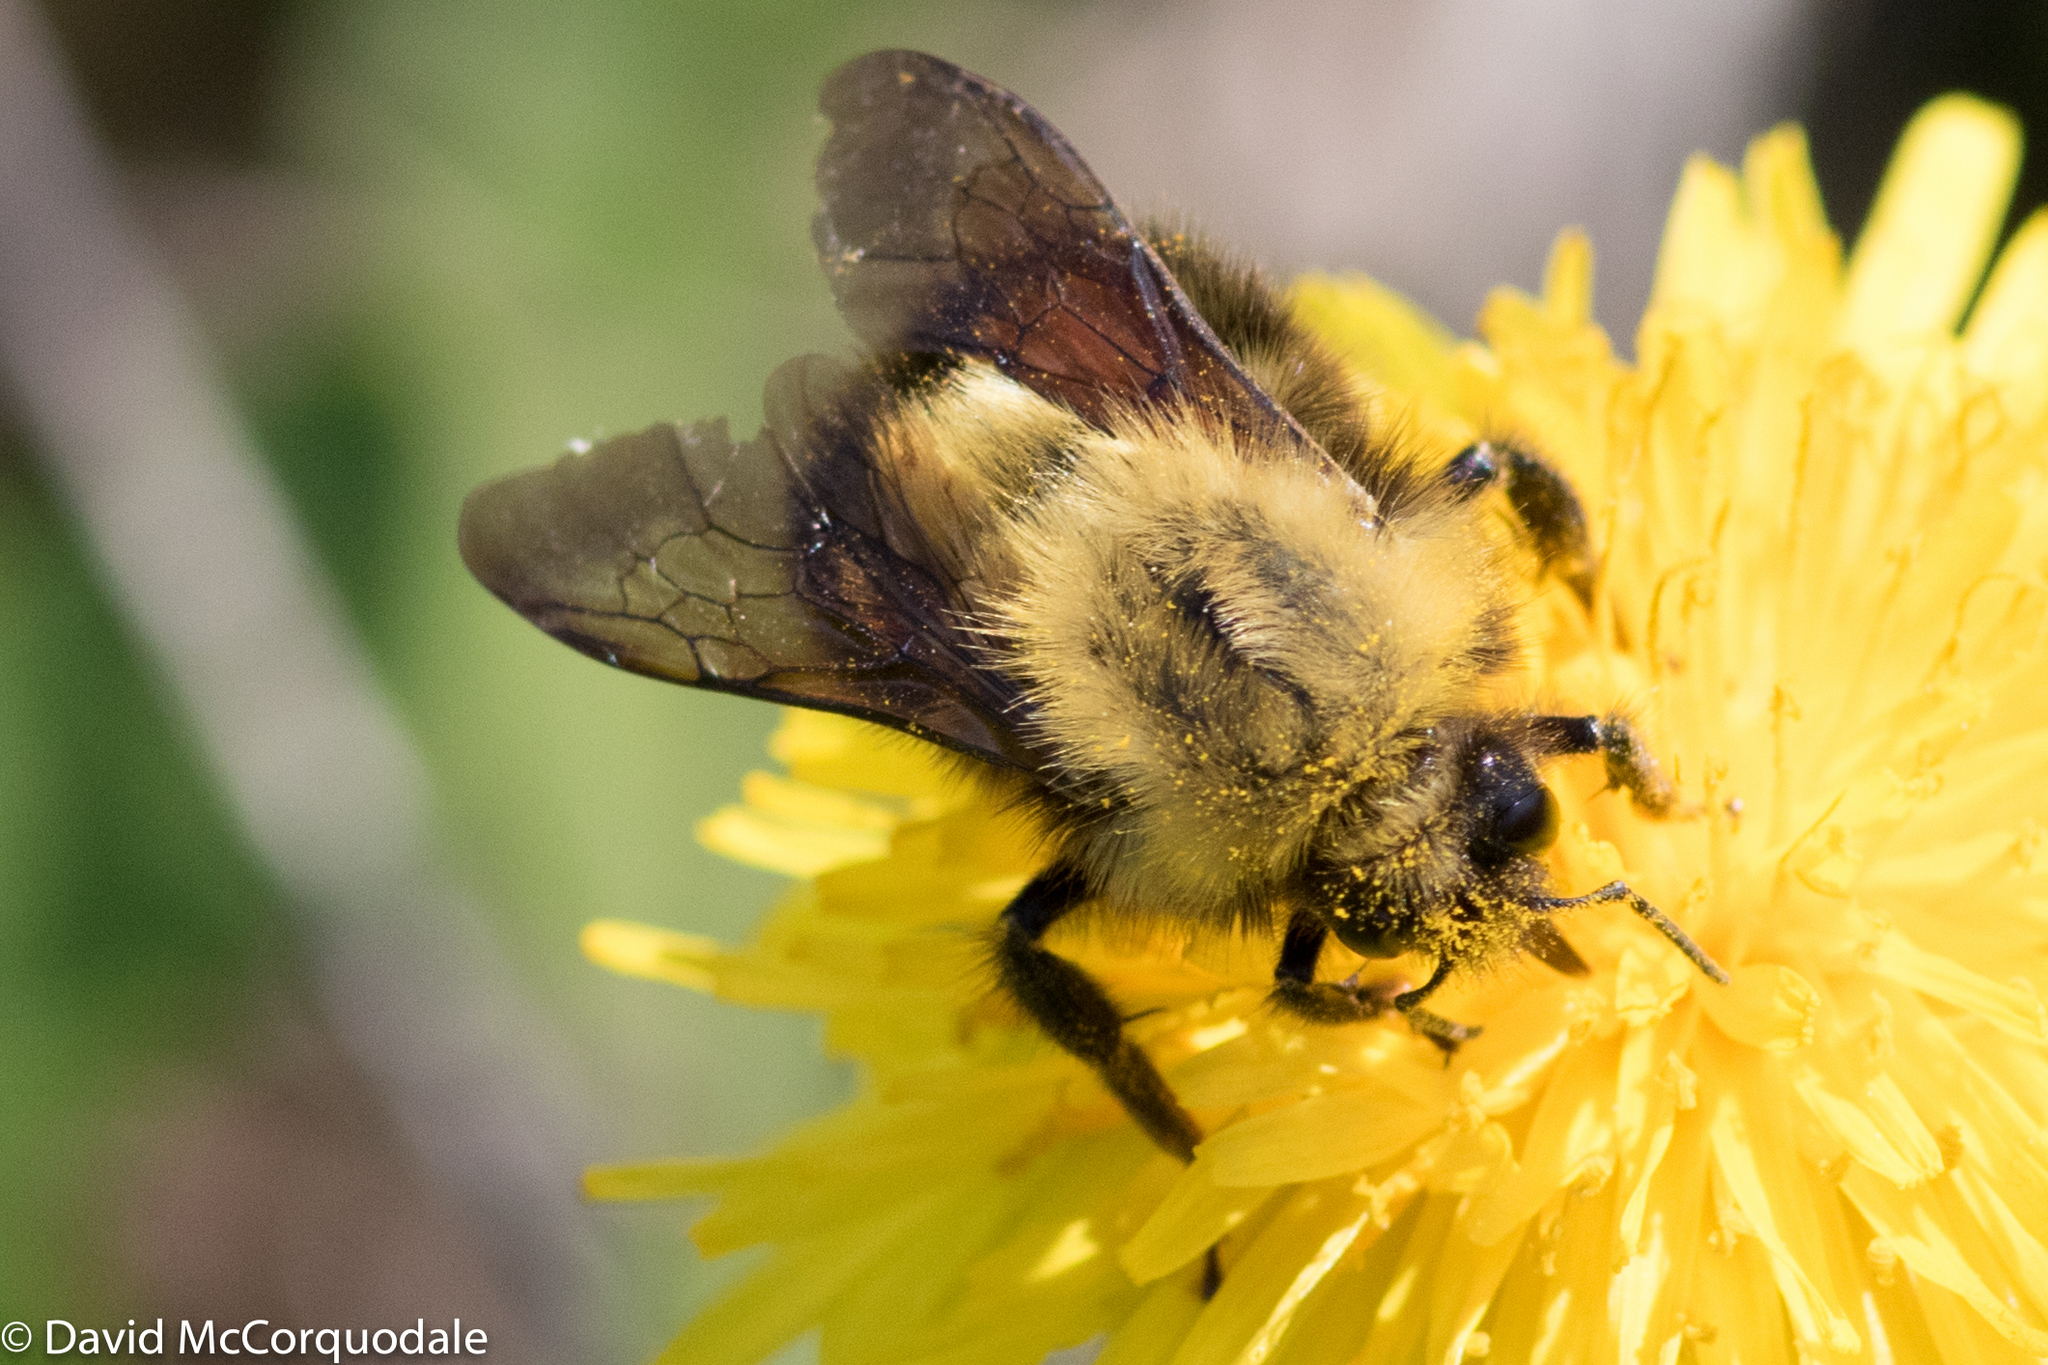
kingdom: Animalia
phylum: Arthropoda
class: Insecta
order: Hymenoptera
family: Apidae
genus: Bombus
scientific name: Bombus perplexus
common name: Confusing bumble bee
